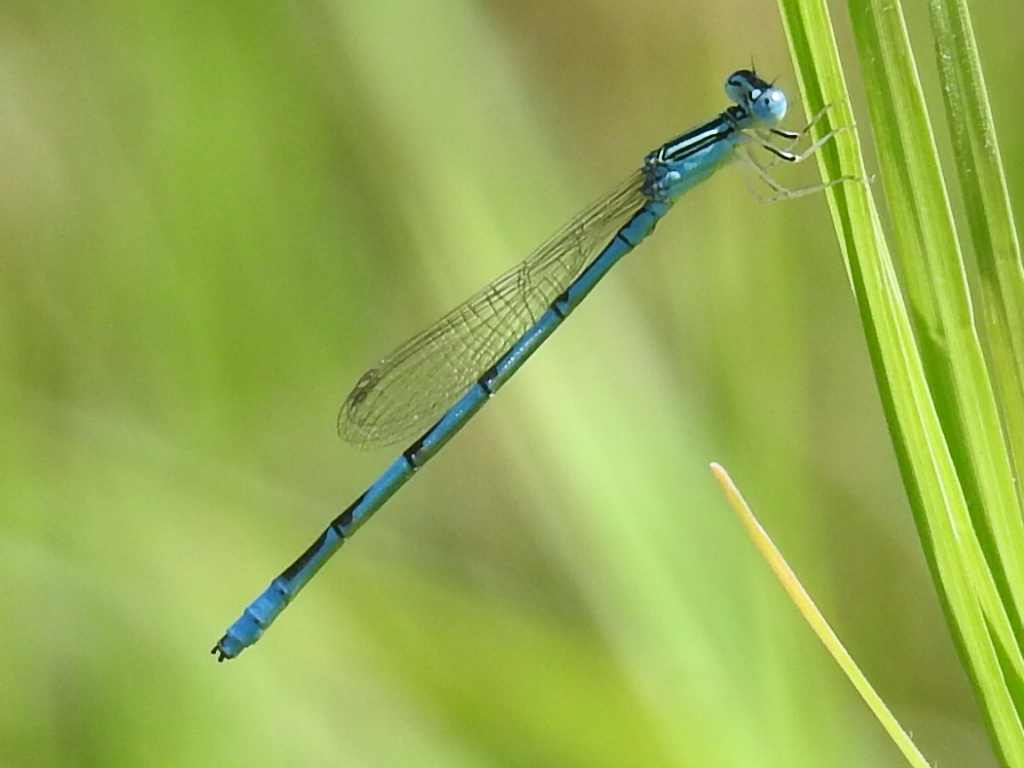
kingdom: Animalia
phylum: Arthropoda
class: Insecta
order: Odonata
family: Coenagrionidae
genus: Enallagma
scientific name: Enallagma basidens
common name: Double-striped bluet
